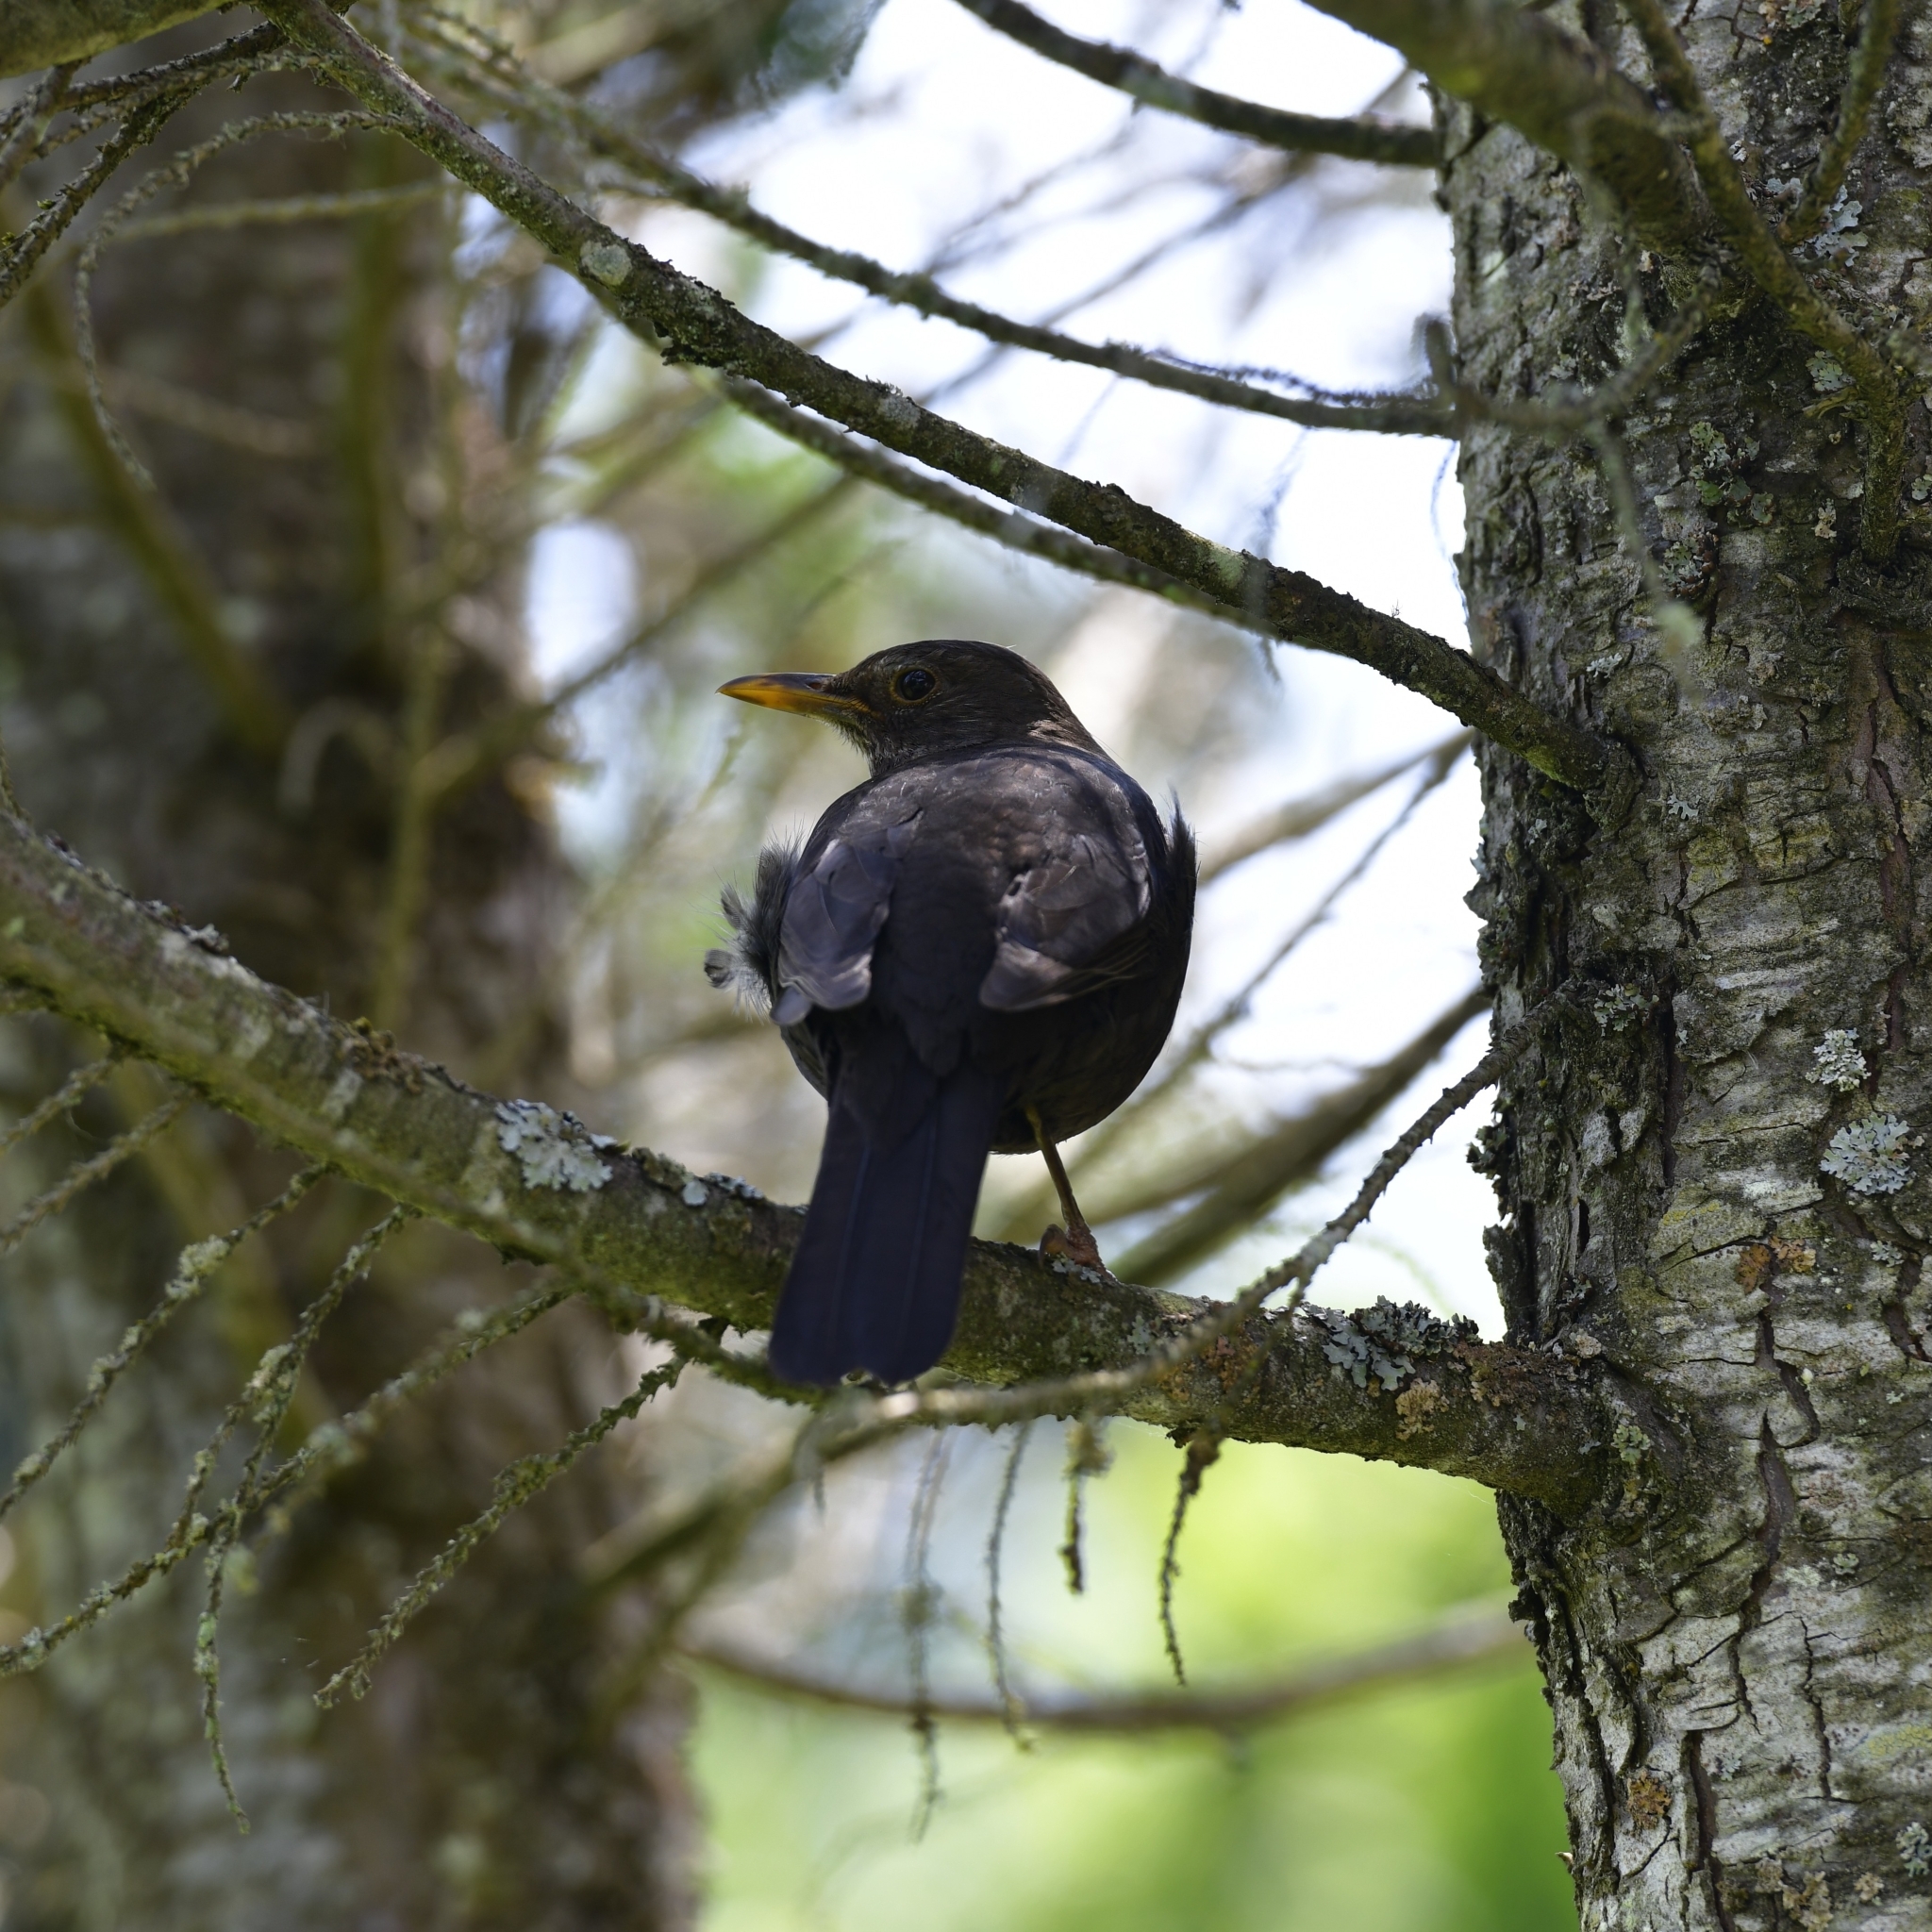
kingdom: Animalia
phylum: Chordata
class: Aves
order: Passeriformes
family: Turdidae
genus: Turdus
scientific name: Turdus merula
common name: Common blackbird
